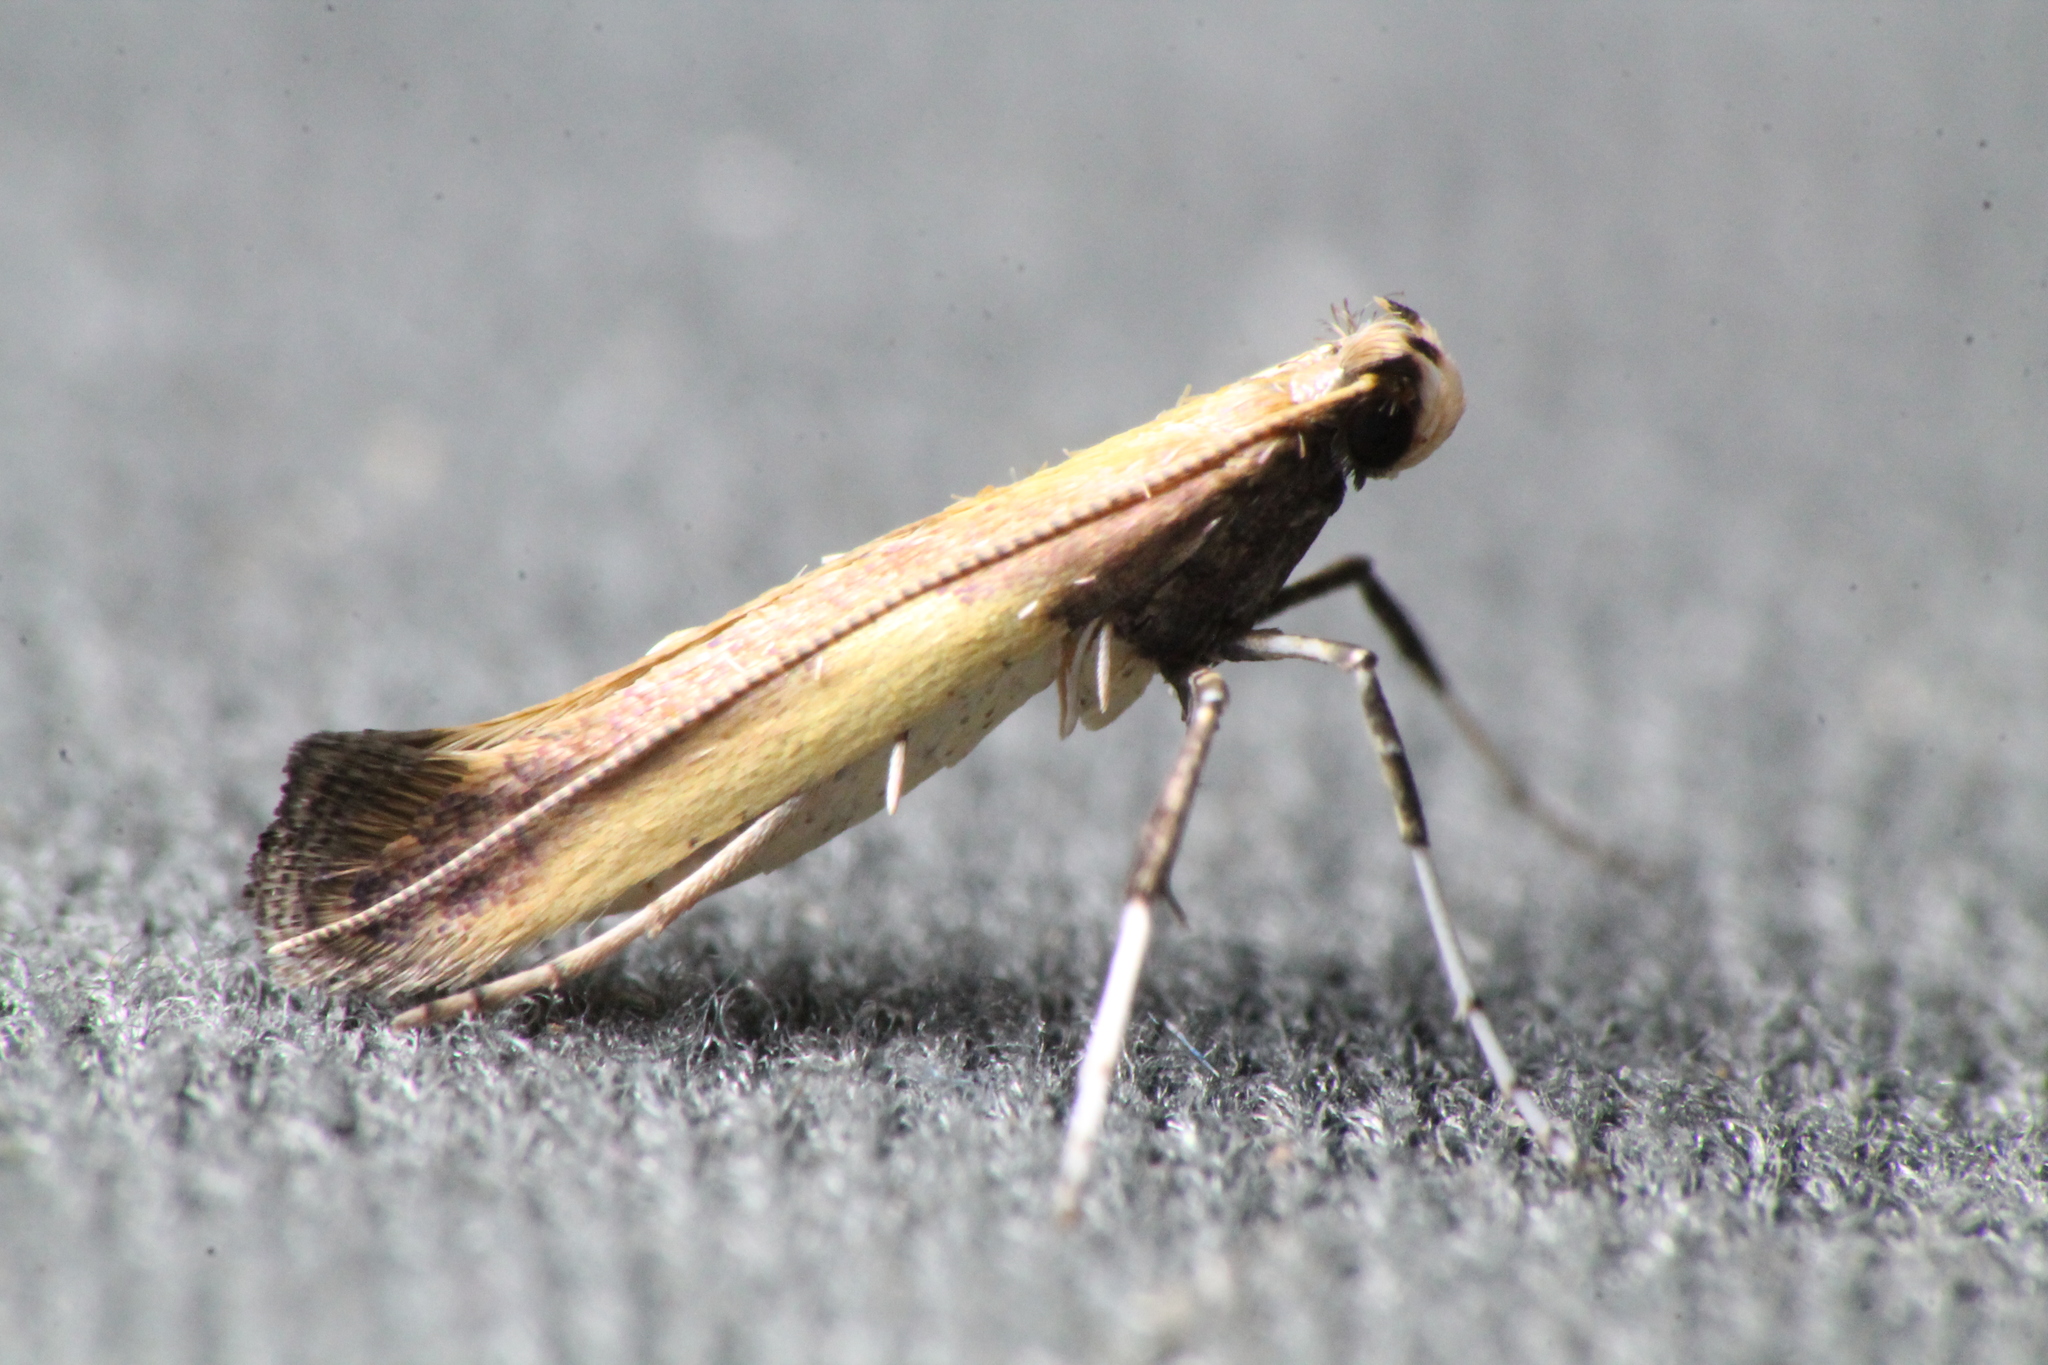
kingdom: Animalia
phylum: Arthropoda
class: Insecta
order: Lepidoptera
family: Gracillariidae
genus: Caloptilia
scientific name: Caloptilia azaleella
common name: Azalea leafminer
